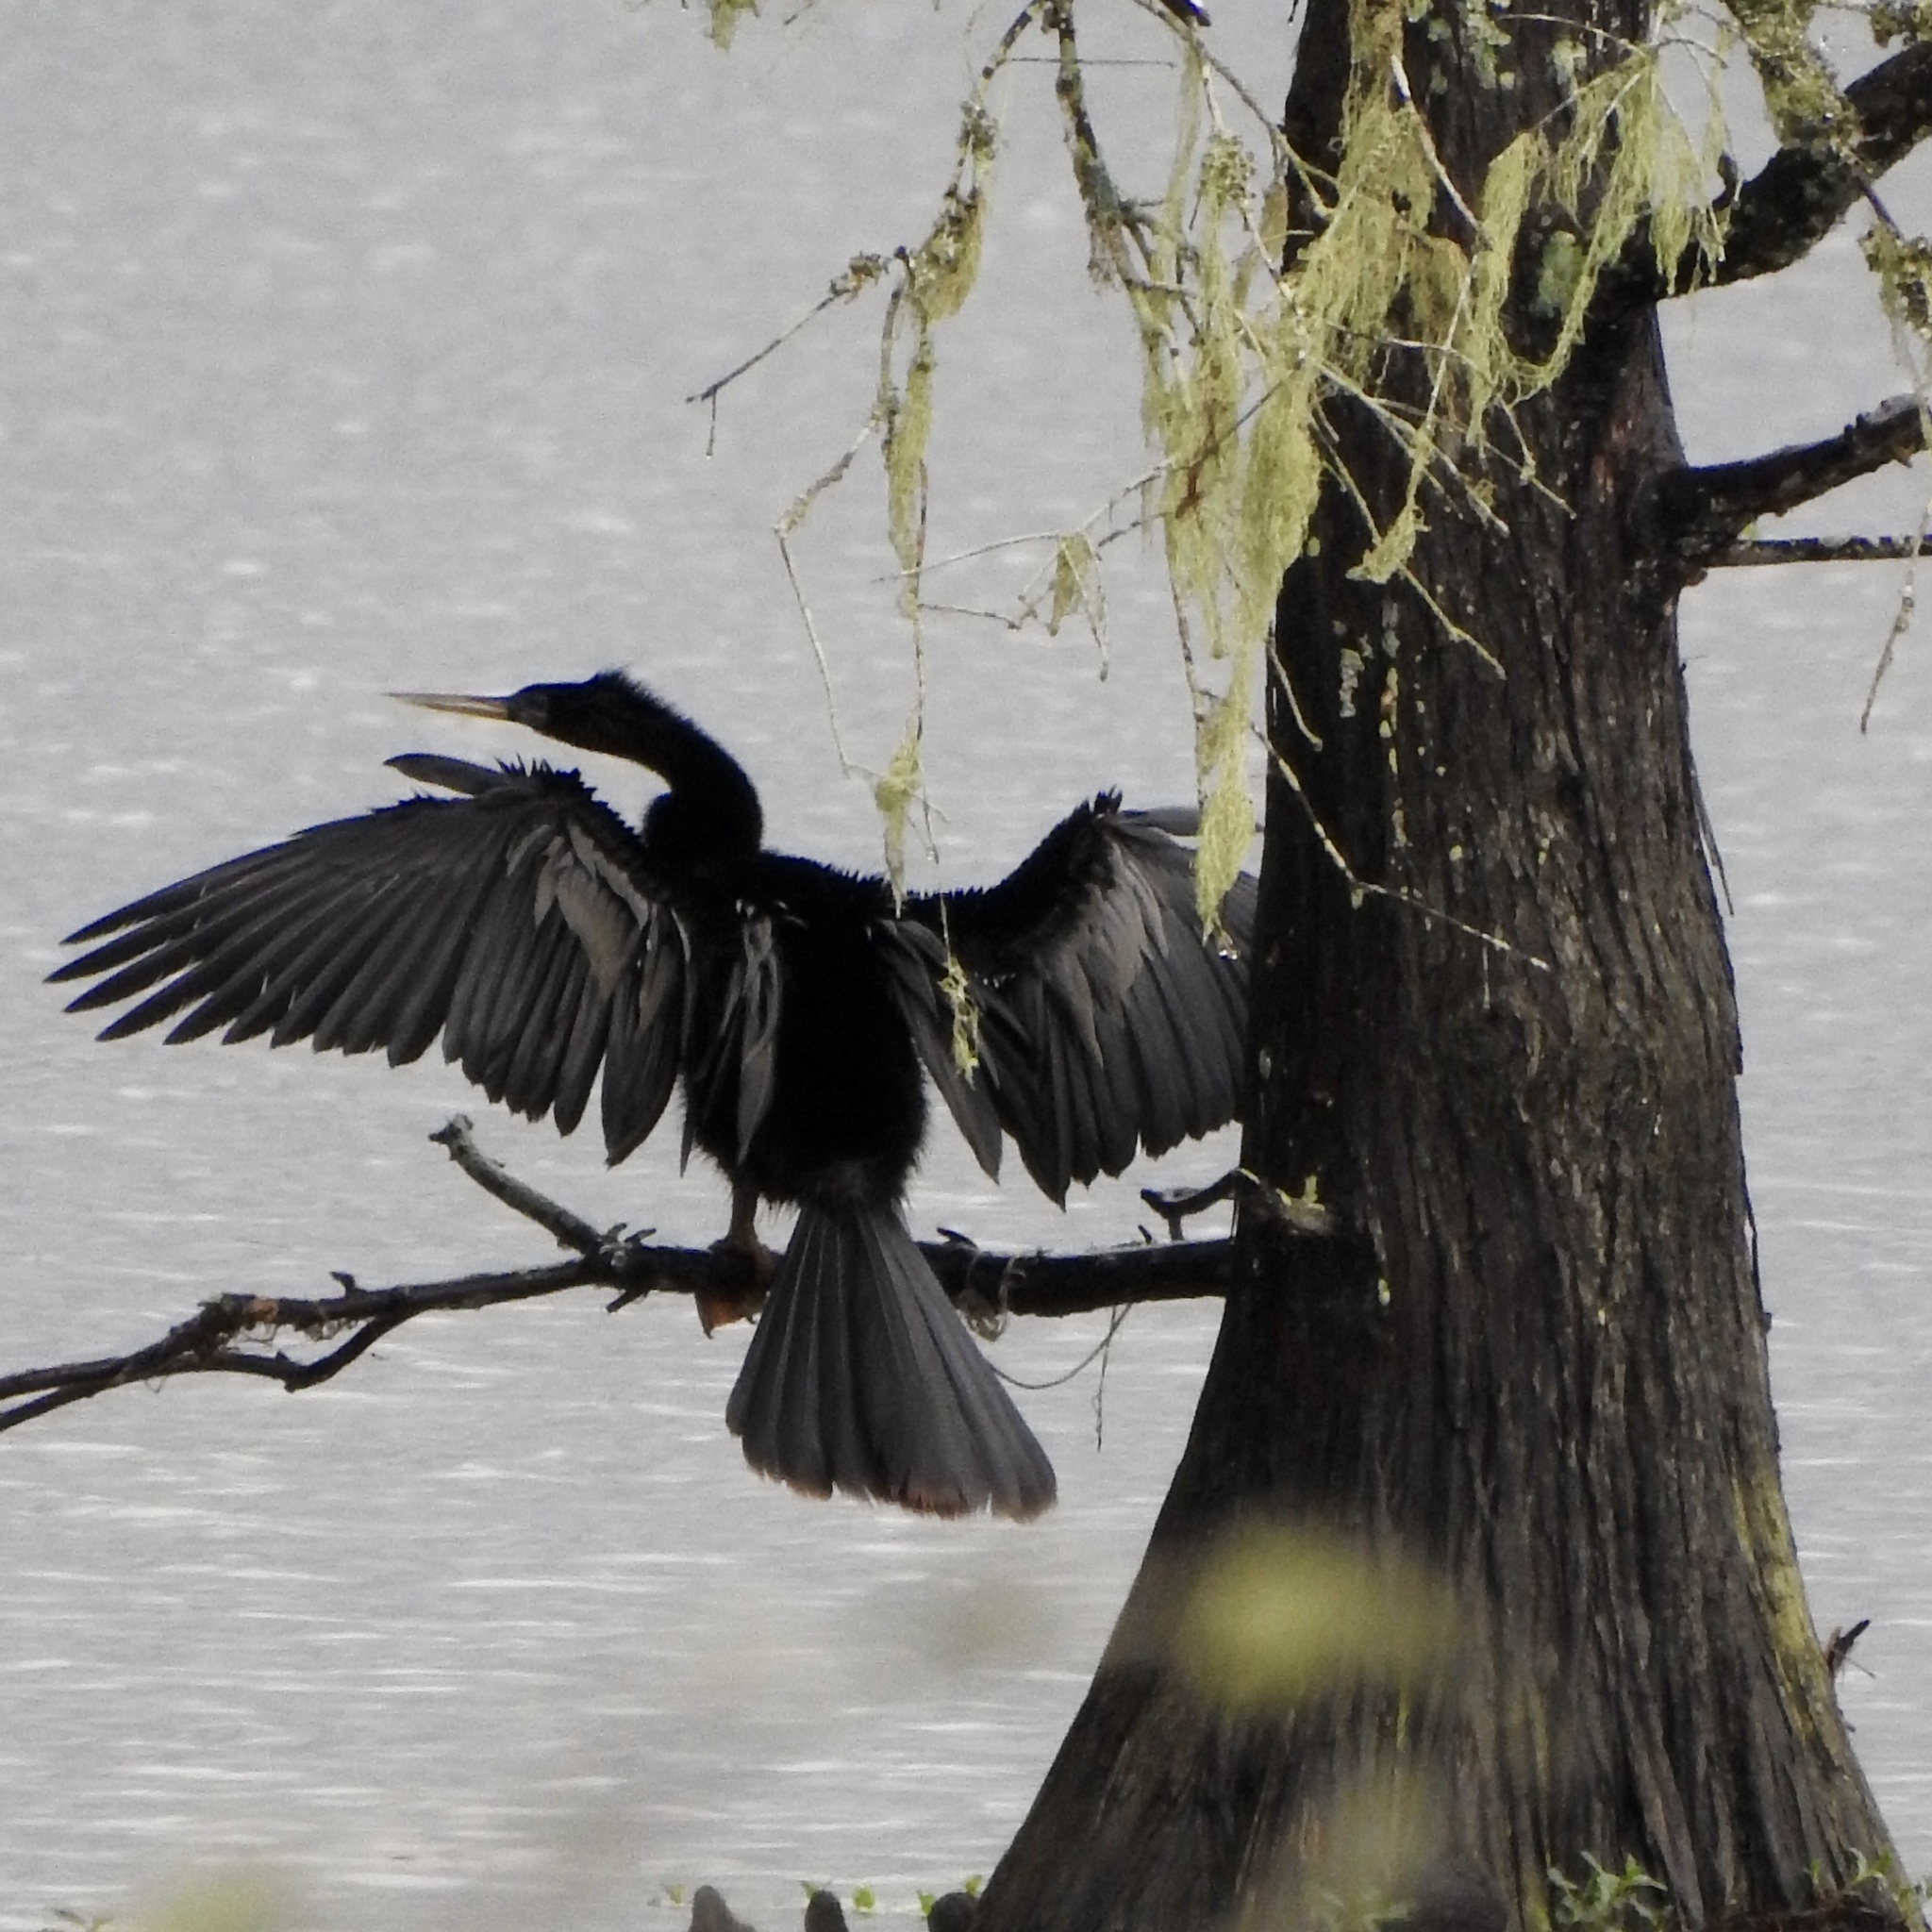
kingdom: Animalia
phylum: Chordata
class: Aves
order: Suliformes
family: Anhingidae
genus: Anhinga
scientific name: Anhinga anhinga
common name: Anhinga
